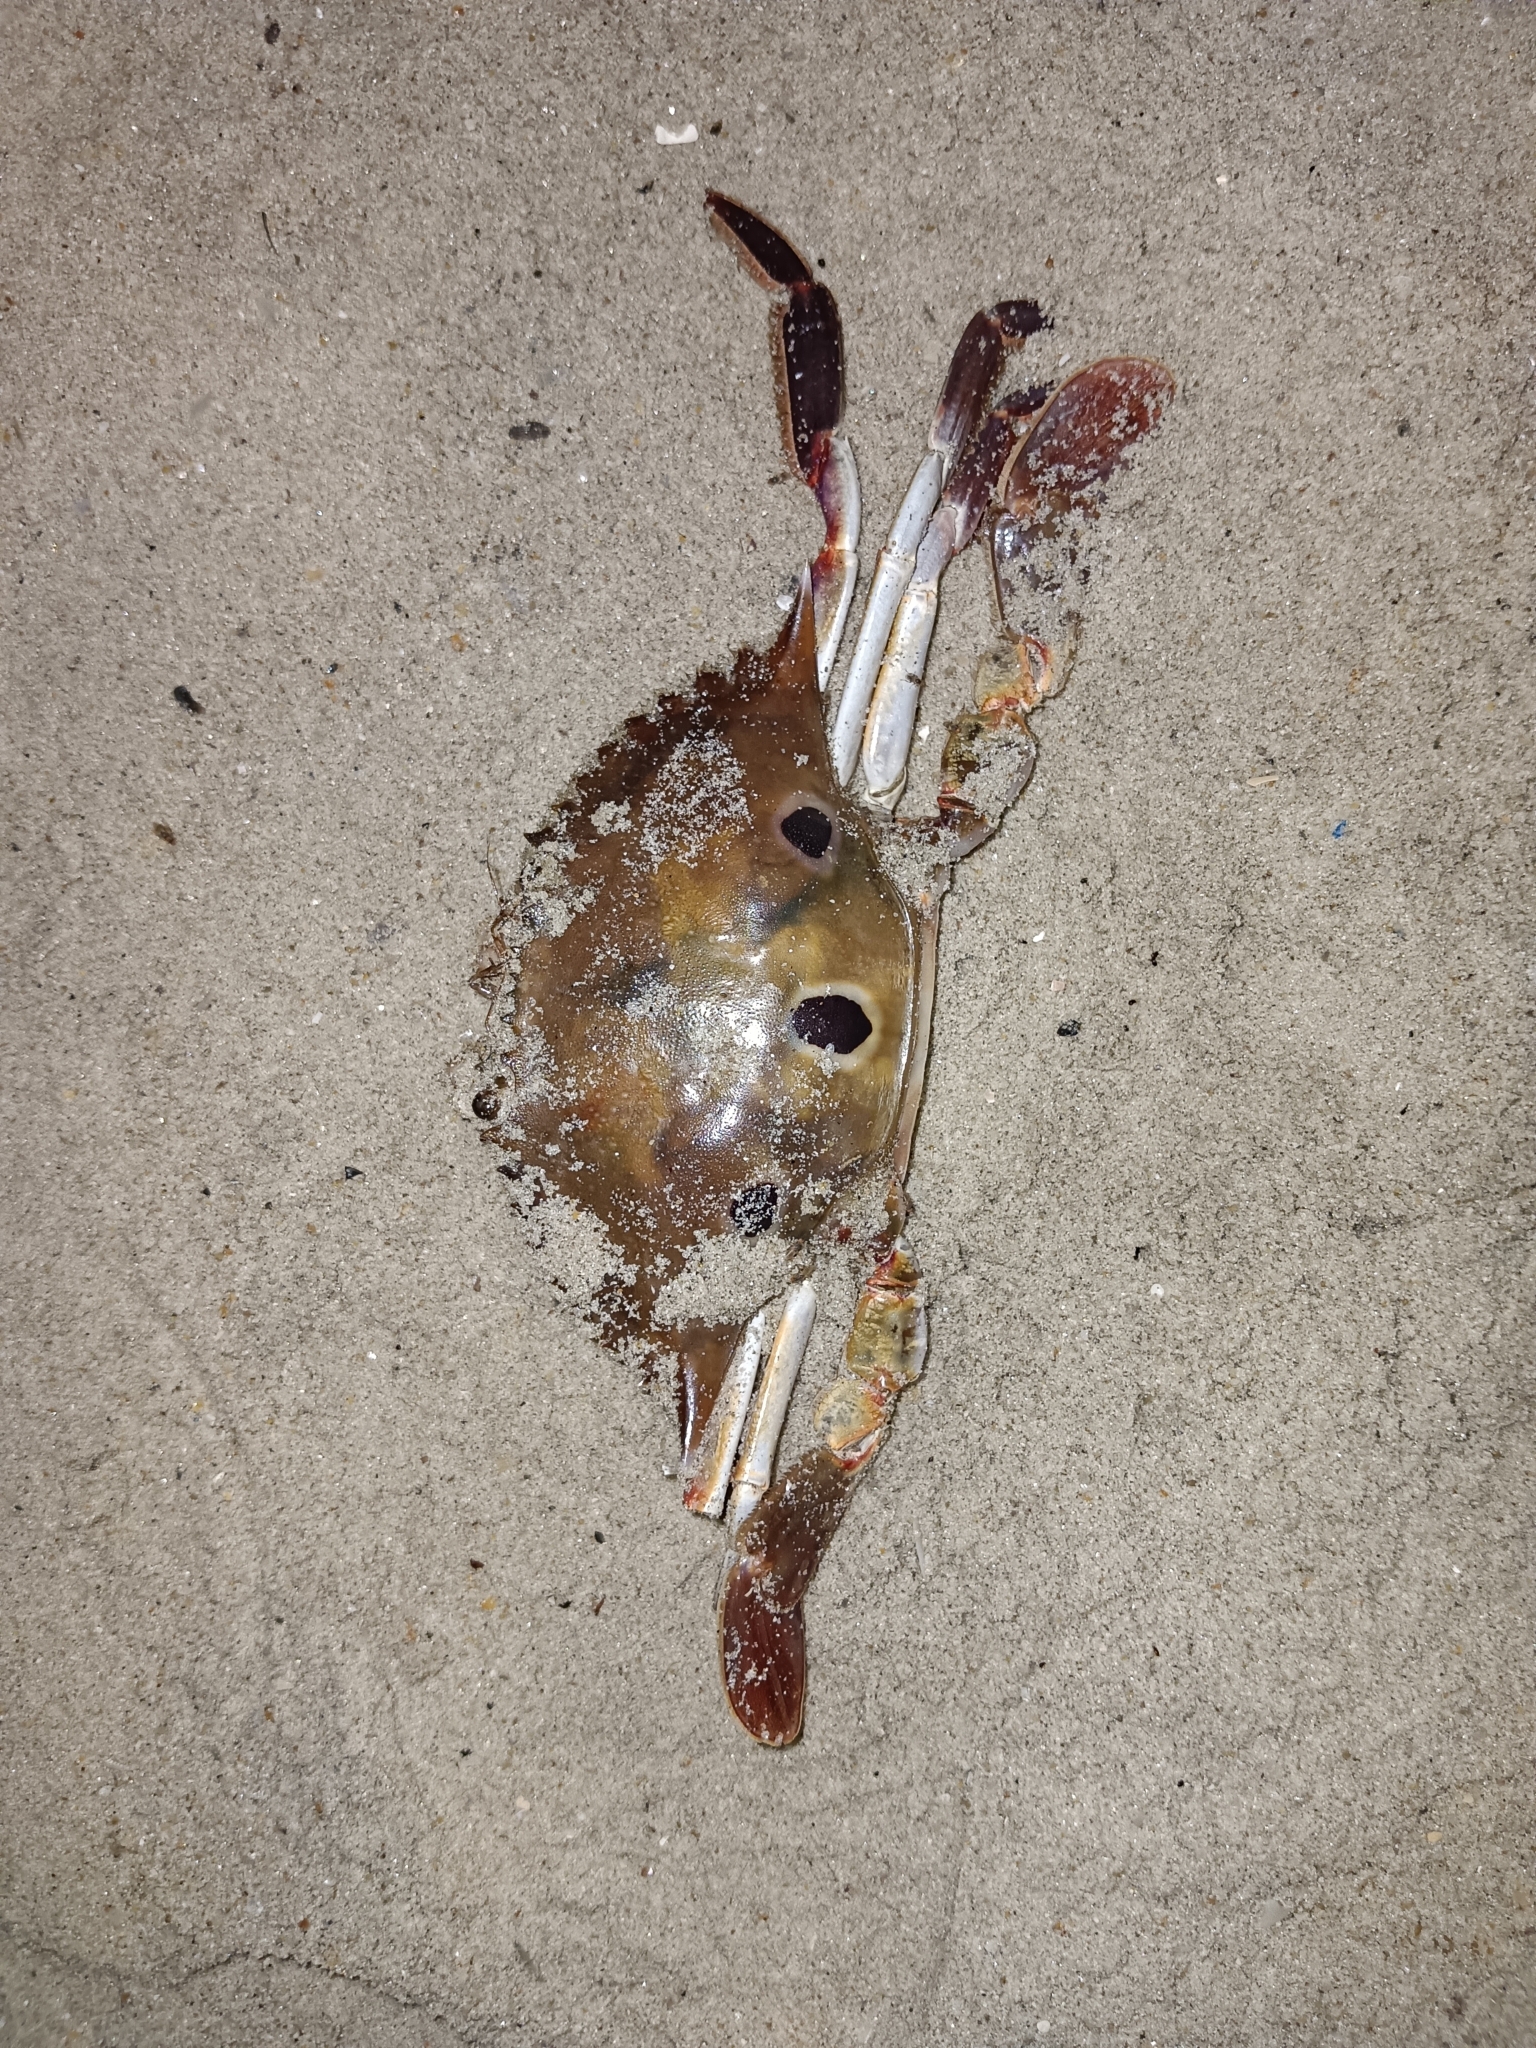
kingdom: Animalia
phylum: Arthropoda
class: Malacostraca
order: Decapoda
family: Portunidae
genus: Portunus
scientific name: Portunus sanguinolentus
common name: Blood-spotted swimming crab
